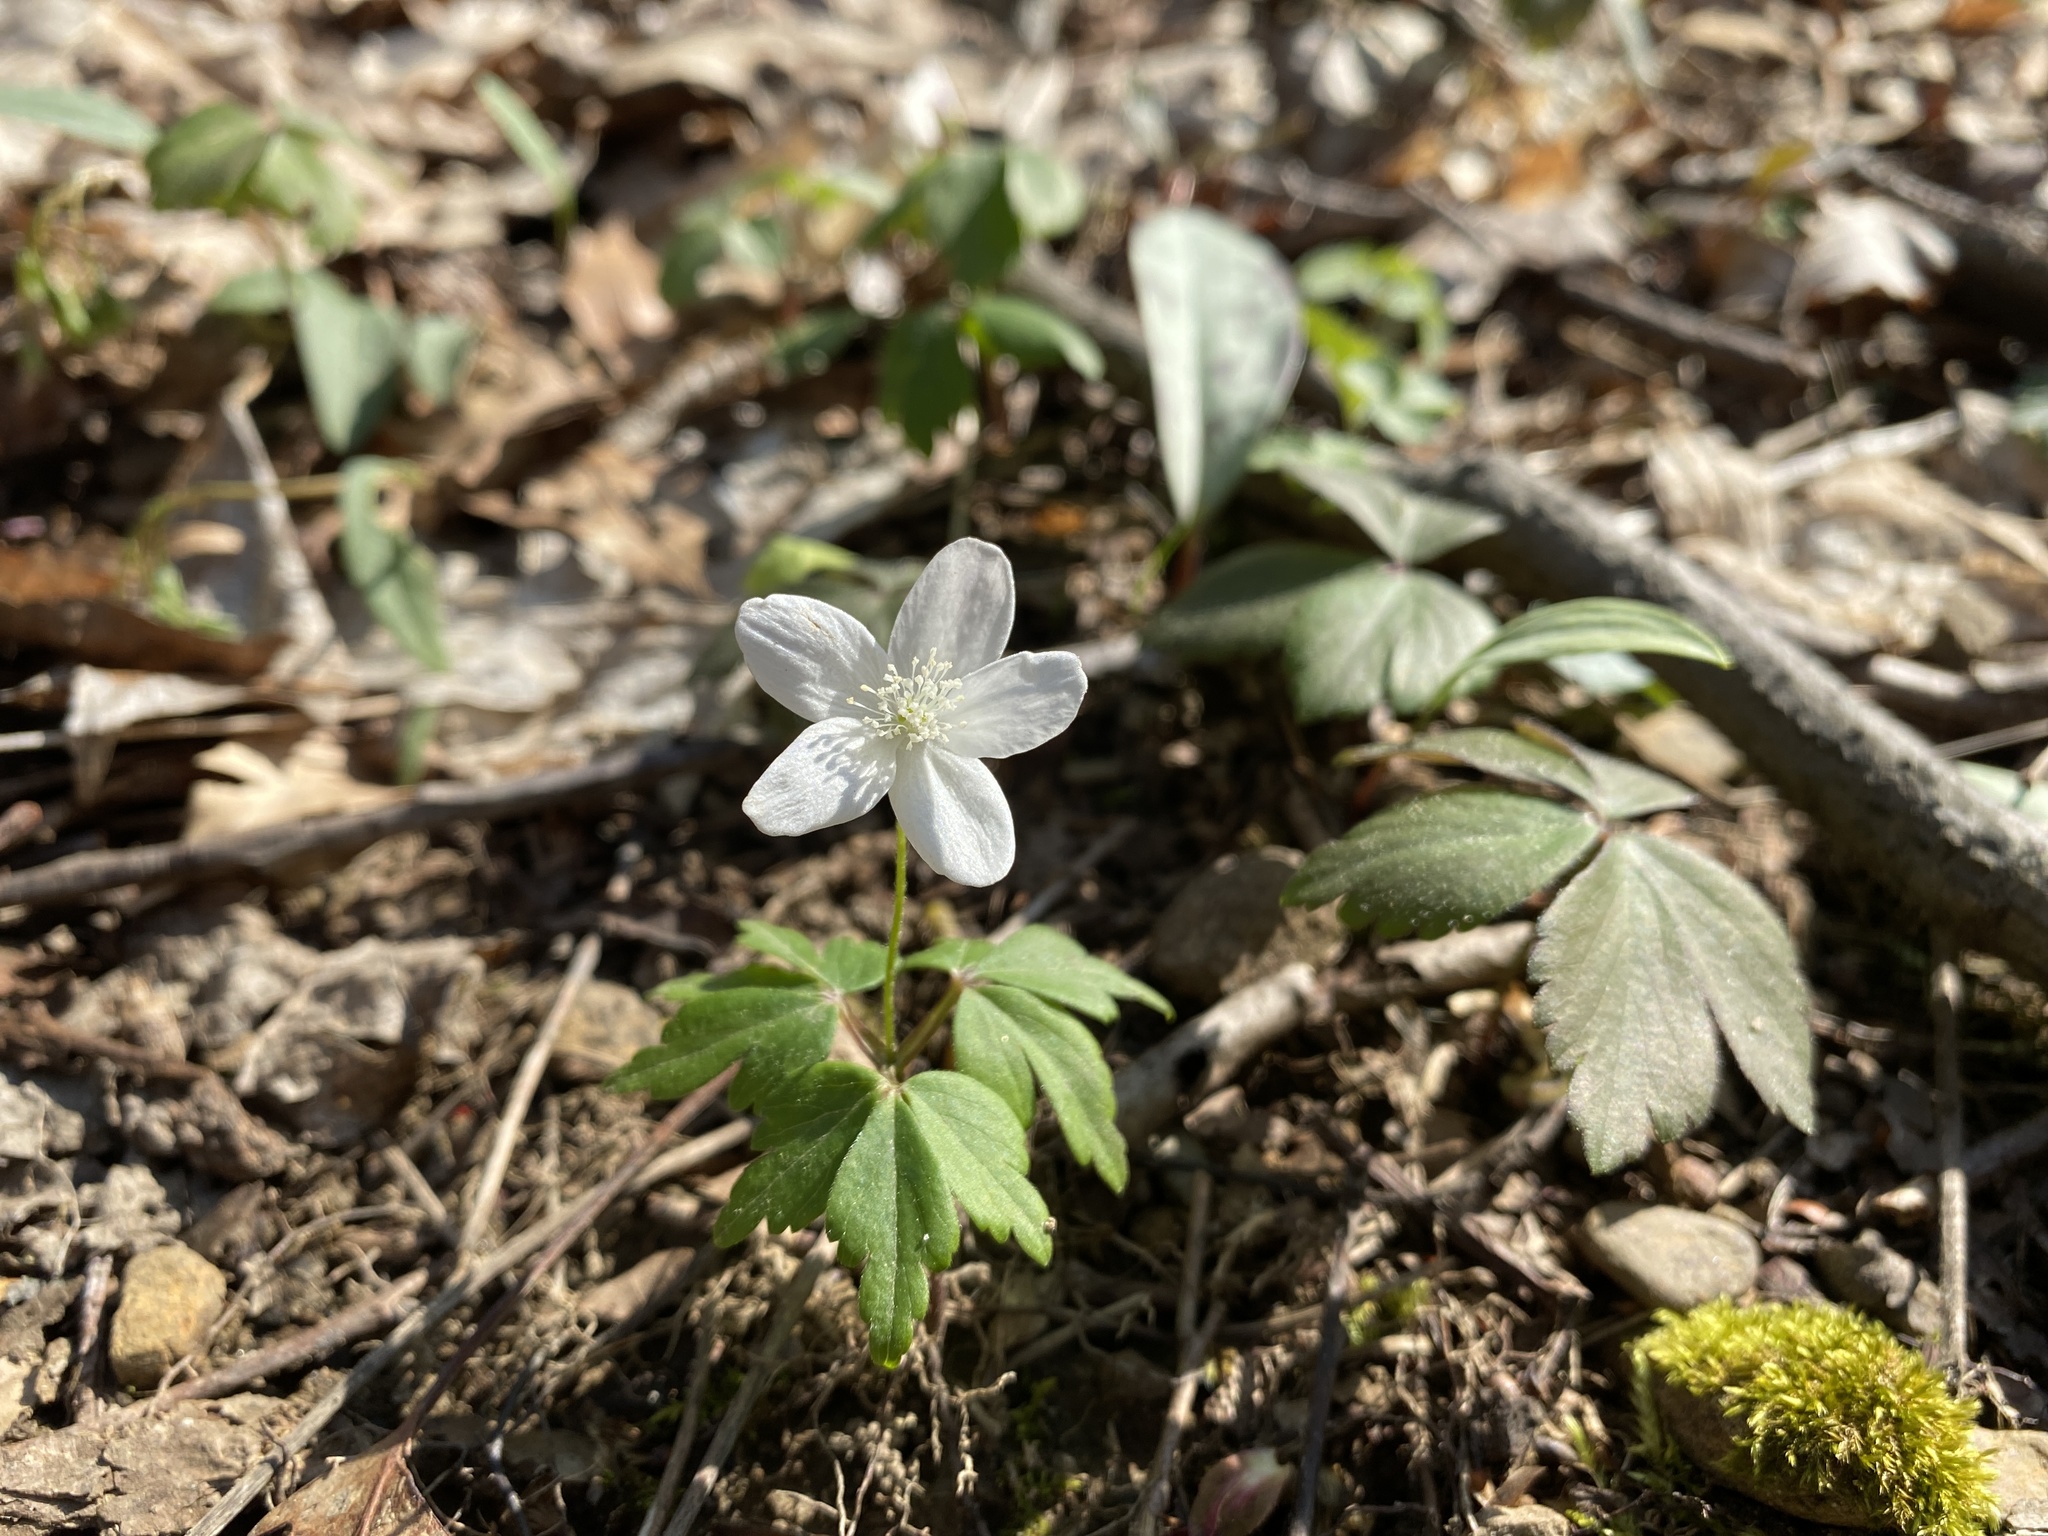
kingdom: Plantae
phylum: Tracheophyta
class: Magnoliopsida
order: Ranunculales
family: Ranunculaceae
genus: Anemone
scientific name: Anemone quinquefolia
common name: Wood anemone
